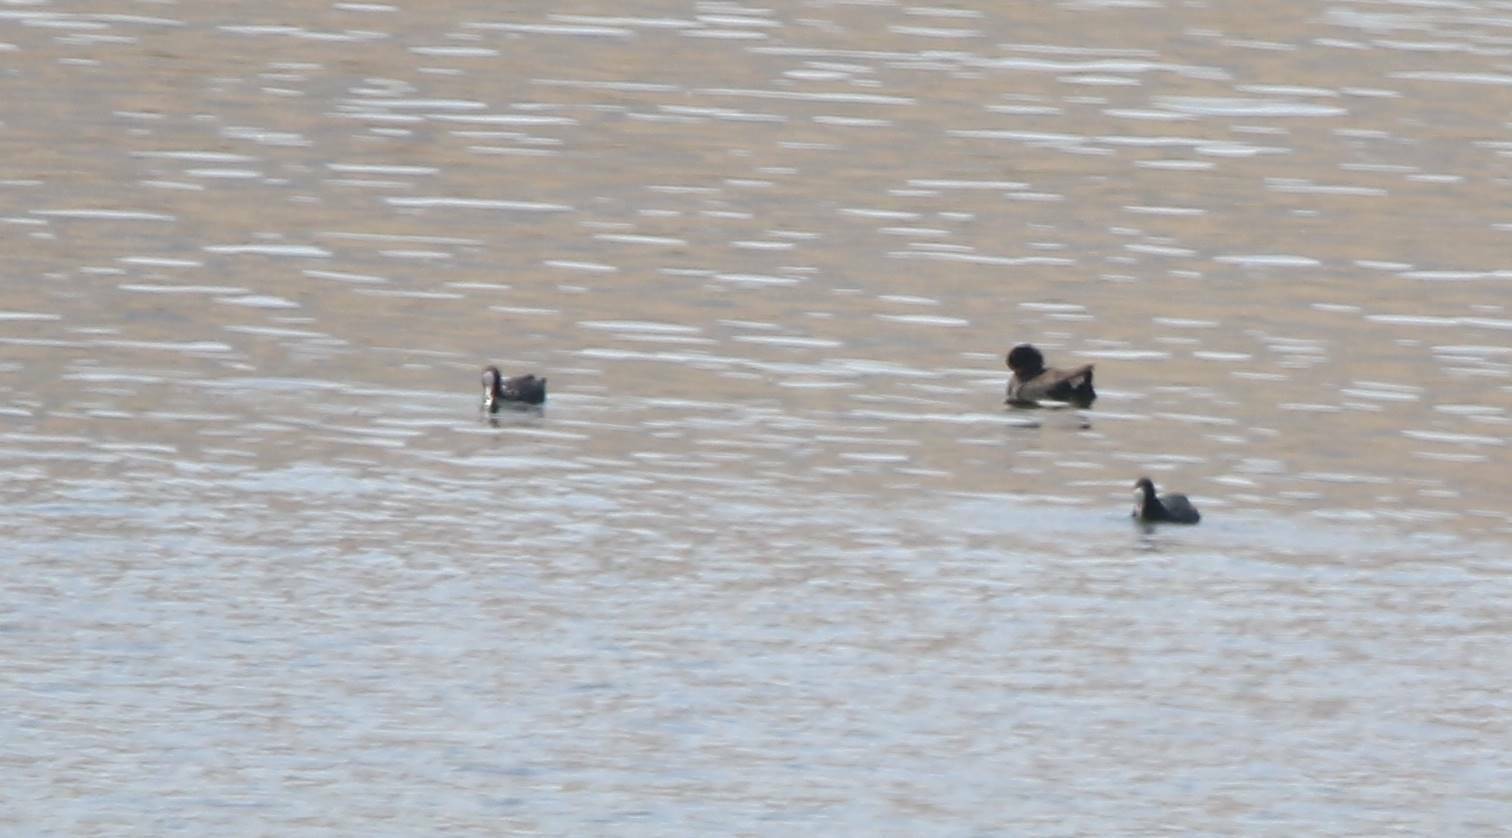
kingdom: Animalia
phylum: Chordata
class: Aves
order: Gruiformes
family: Rallidae
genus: Fulica
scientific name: Fulica atra
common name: Eurasian coot
